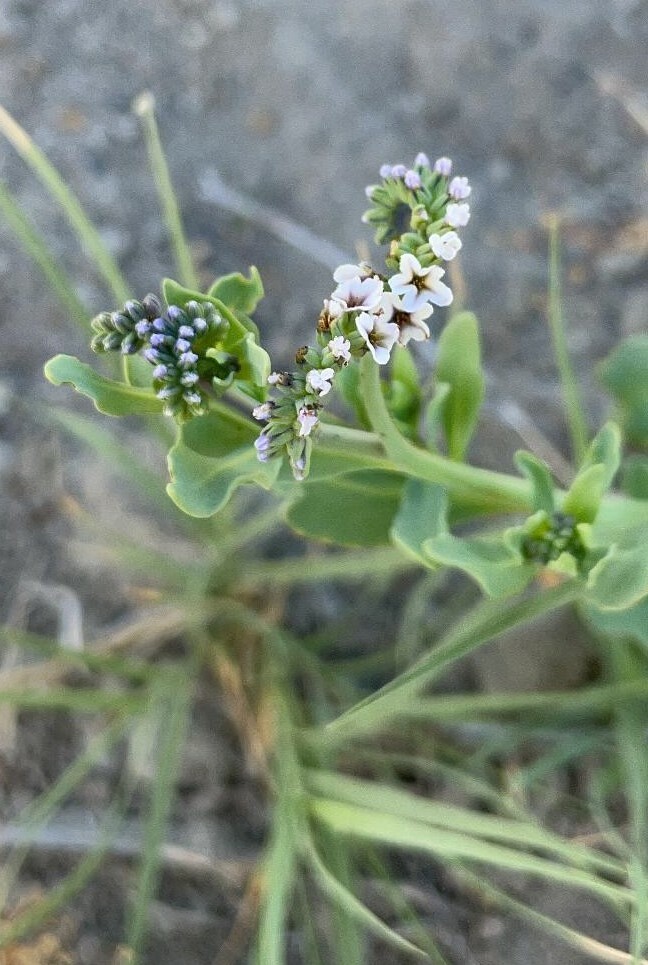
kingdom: Plantae
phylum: Tracheophyta
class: Magnoliopsida
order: Boraginales
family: Heliotropiaceae
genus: Heliotropium
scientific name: Heliotropium curassavicum
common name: Seaside heliotrope
